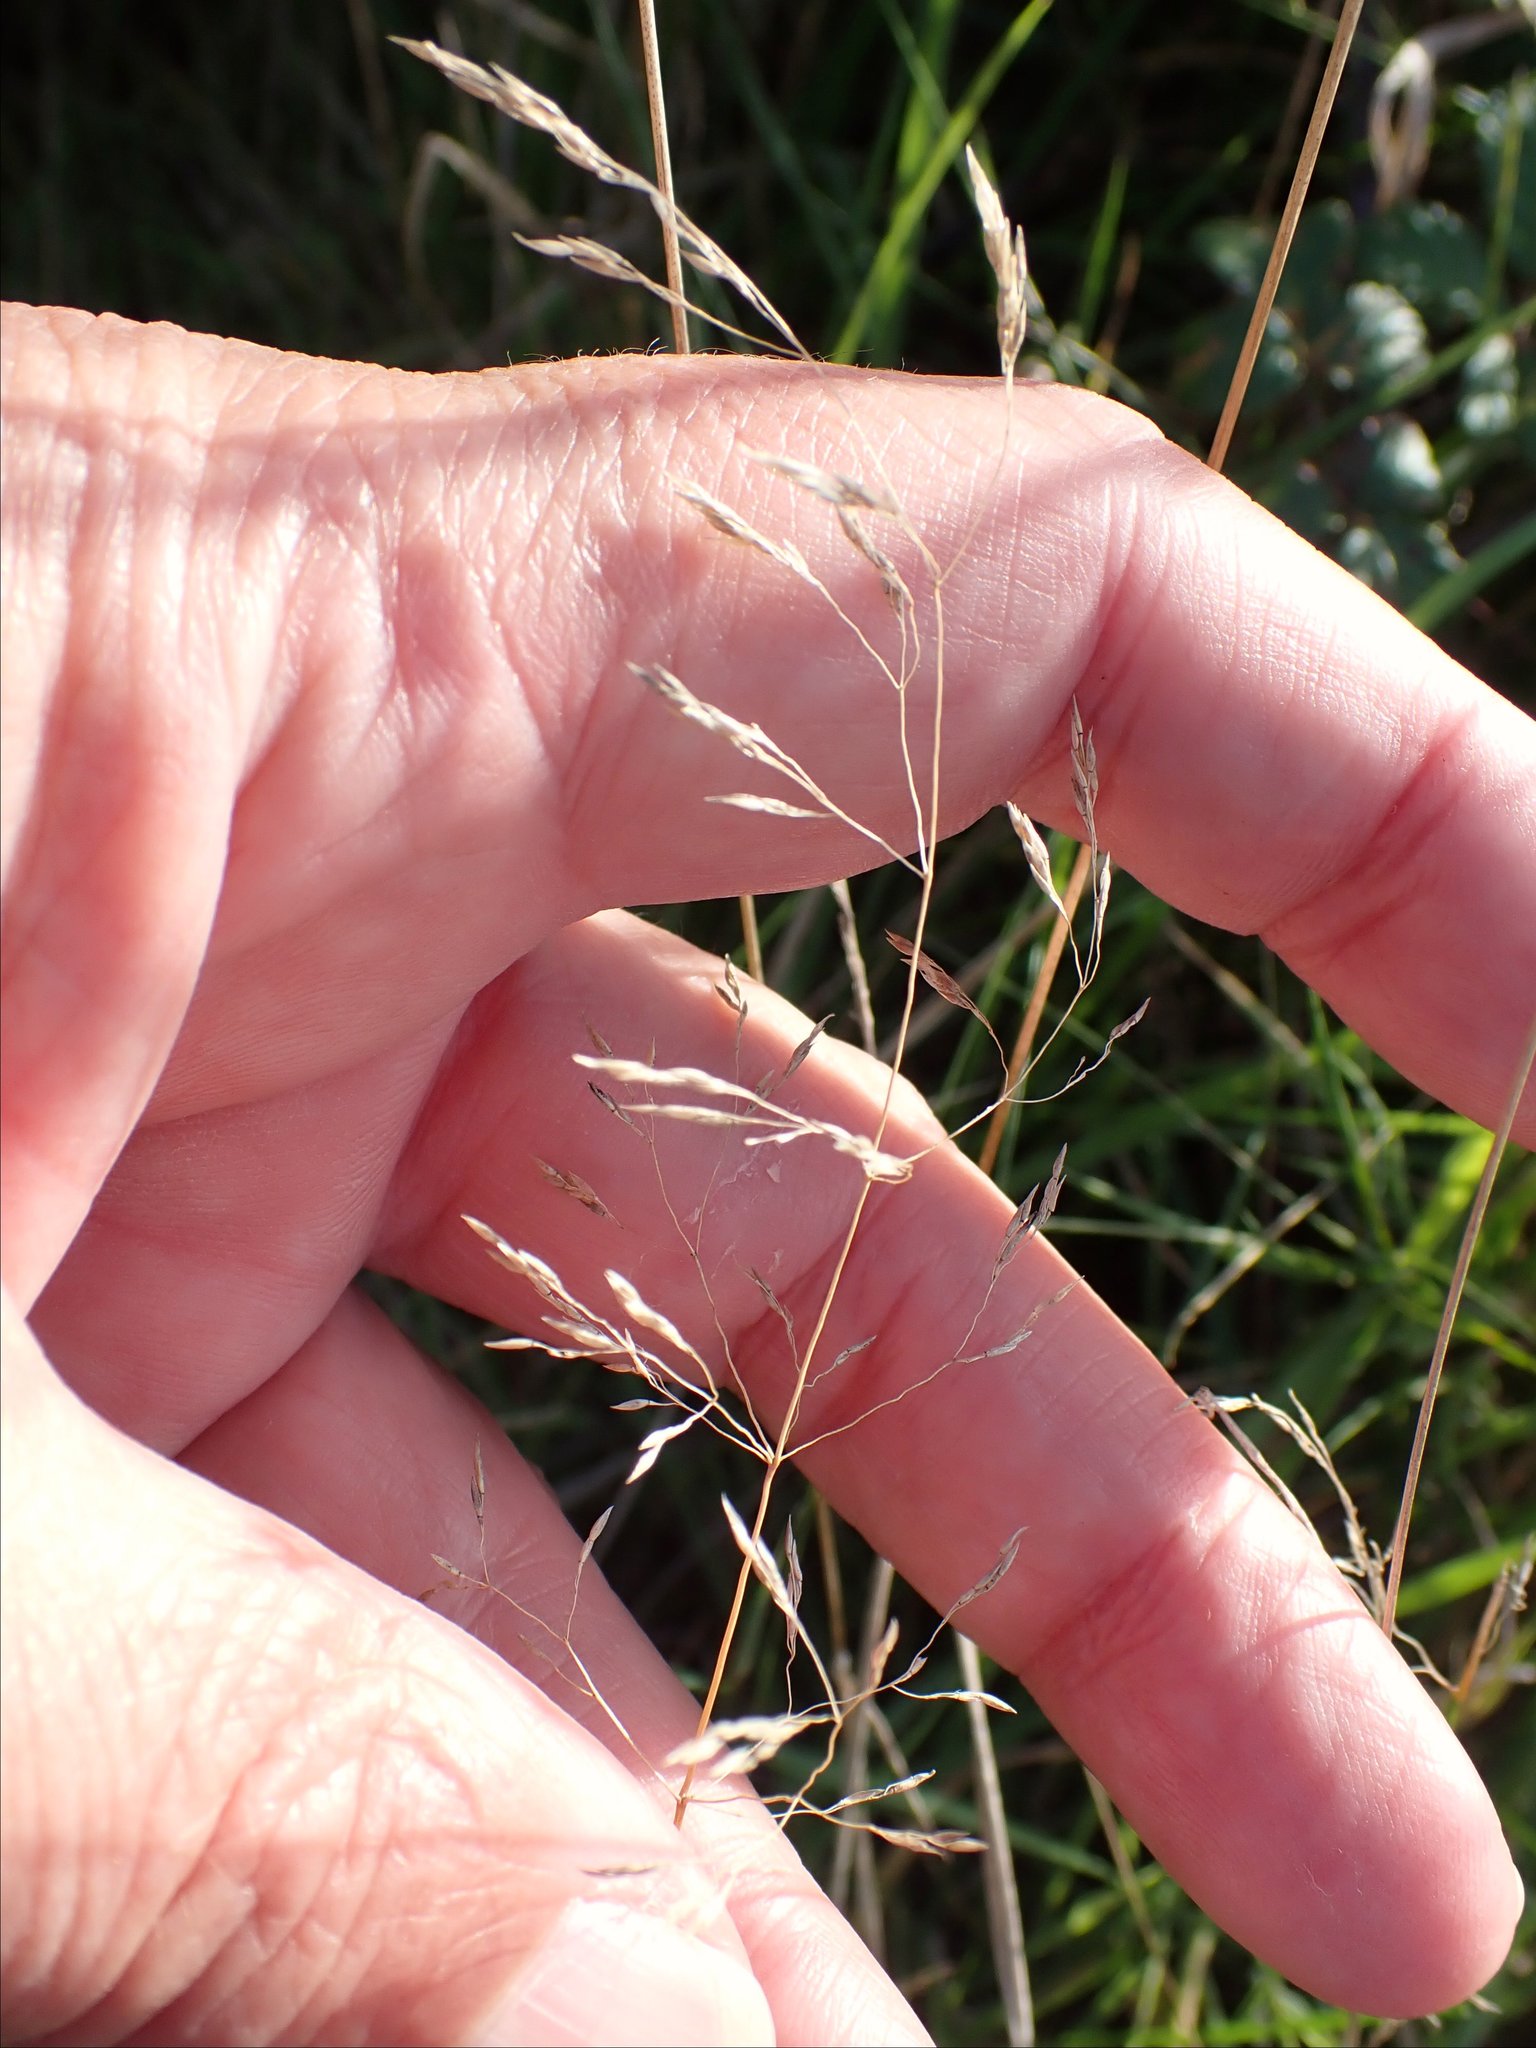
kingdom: Plantae
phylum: Tracheophyta
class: Liliopsida
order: Poales
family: Poaceae
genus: Agrostis
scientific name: Agrostis capillaris
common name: Colonial bentgrass
